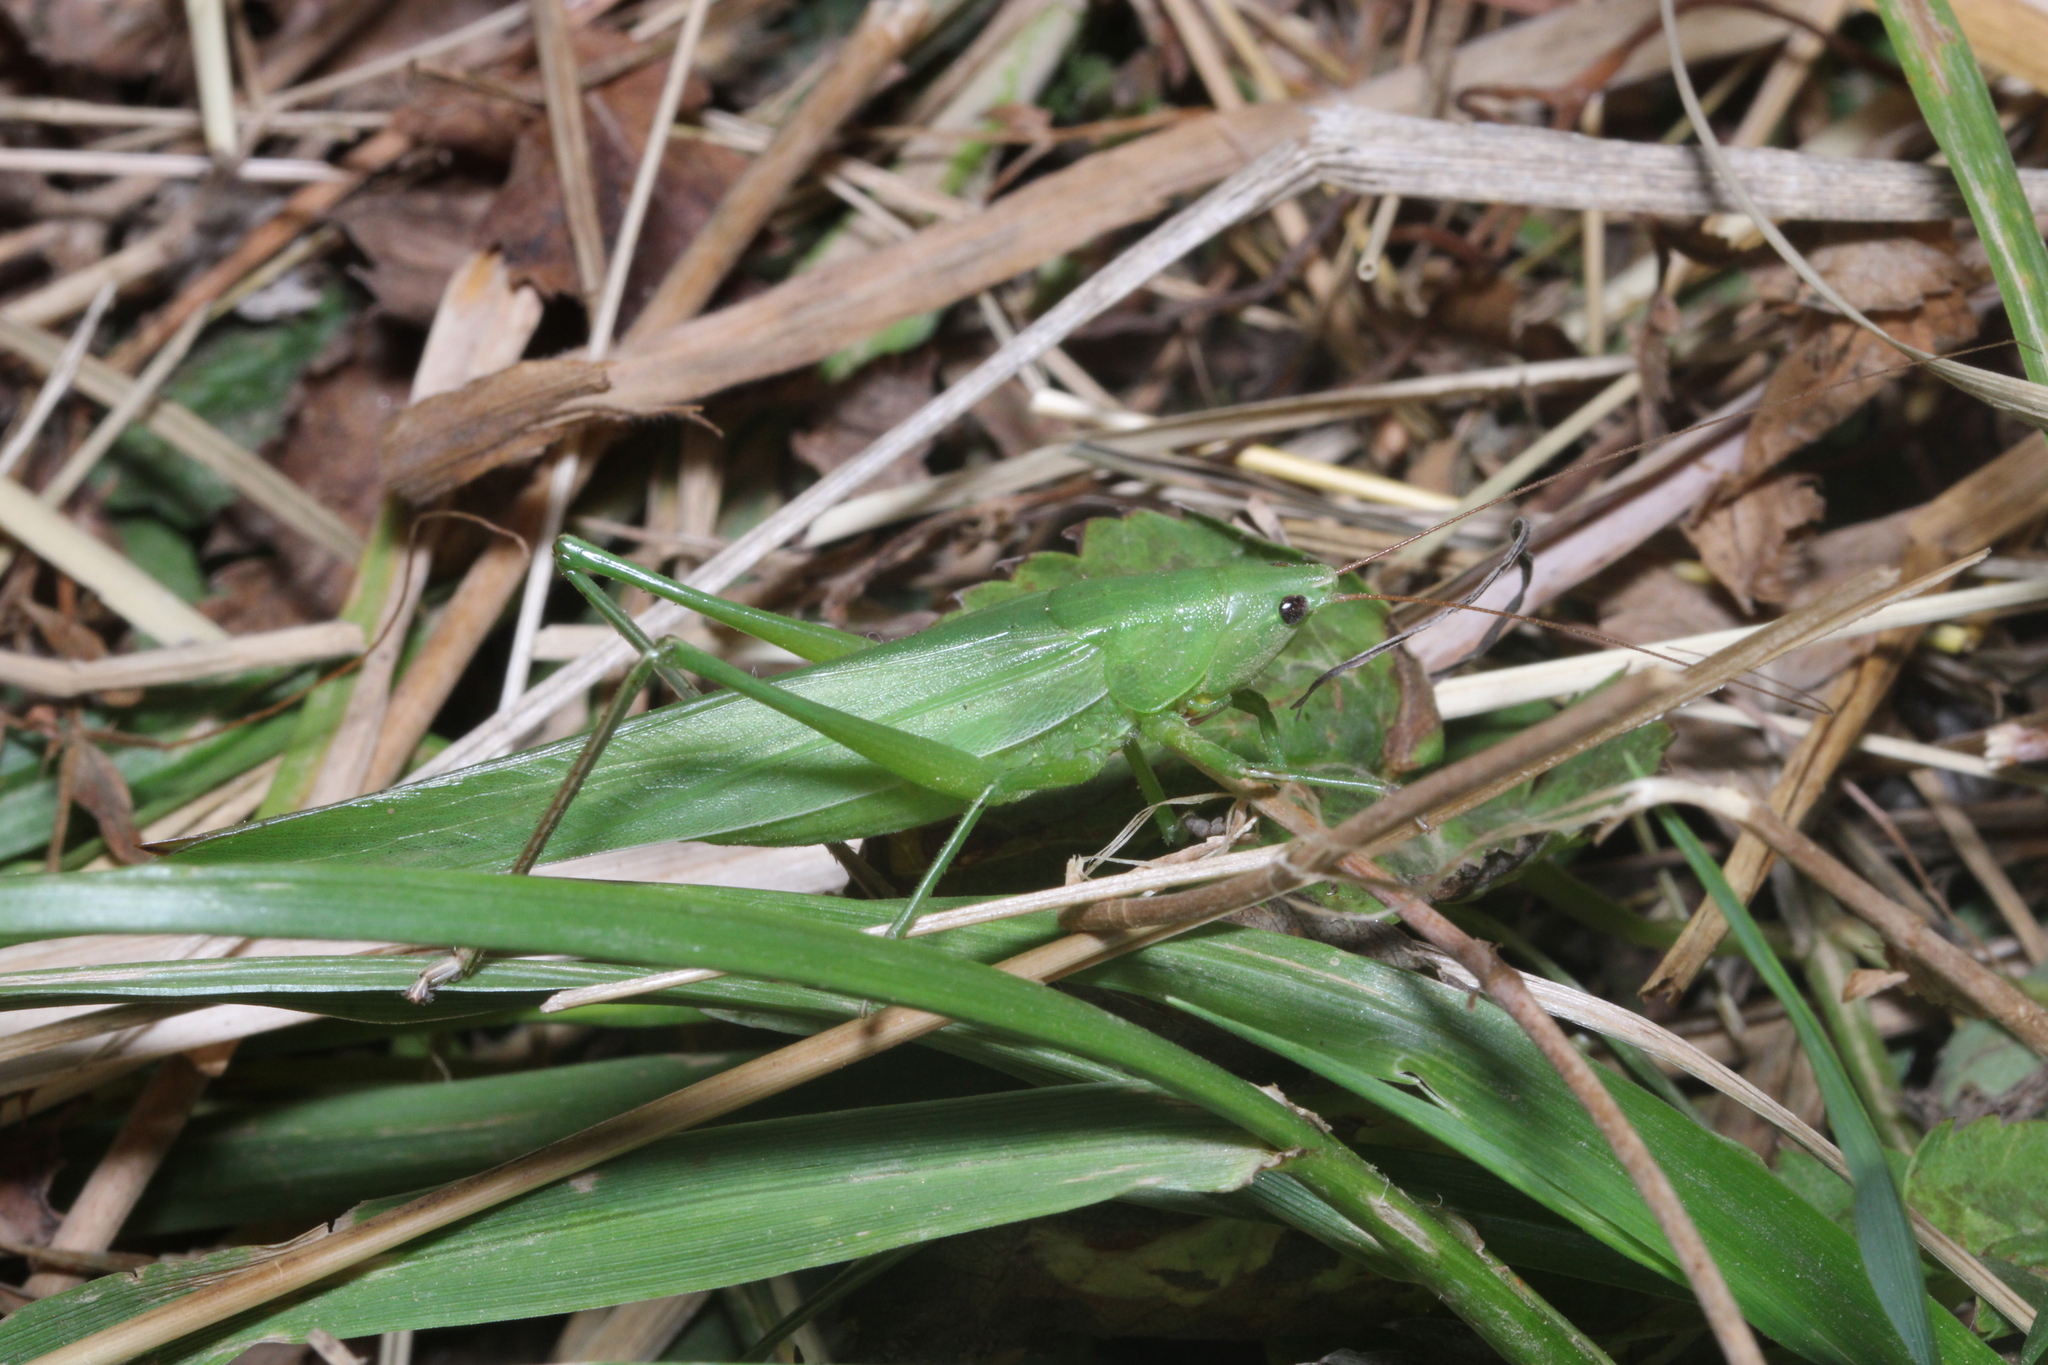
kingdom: Animalia
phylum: Arthropoda
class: Insecta
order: Orthoptera
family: Tettigoniidae
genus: Ruspolia
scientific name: Ruspolia nitidula
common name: Large conehead
